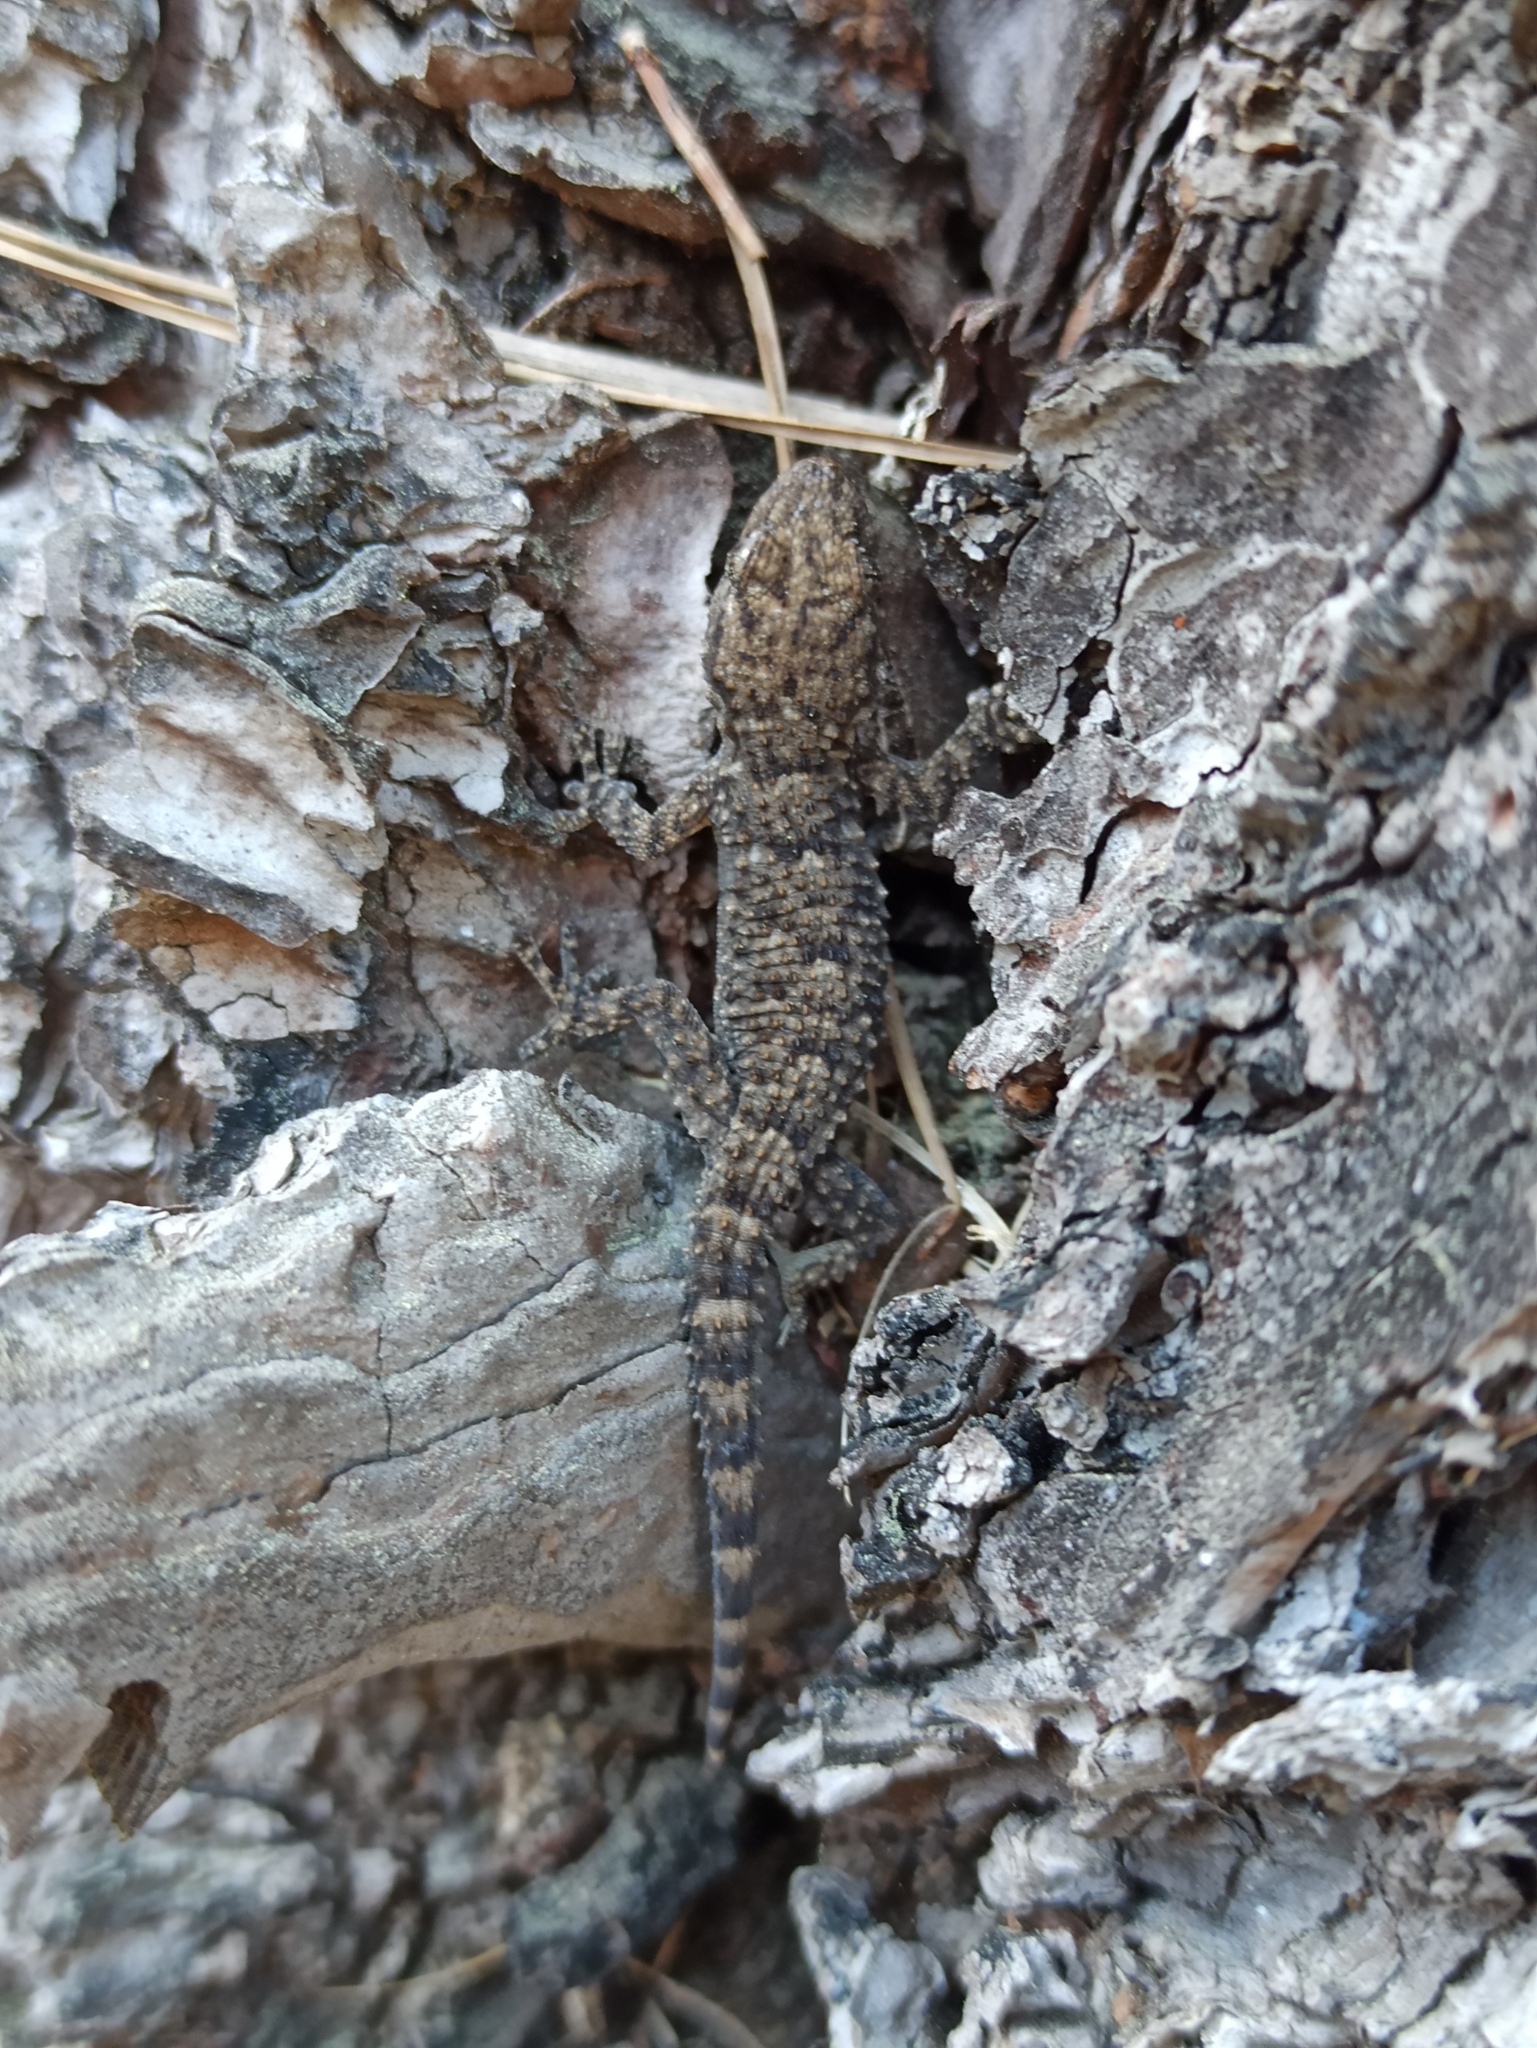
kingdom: Animalia
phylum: Chordata
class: Squamata
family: Phyllodactylidae
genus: Tarentola
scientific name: Tarentola mauritanica
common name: Moorish gecko
